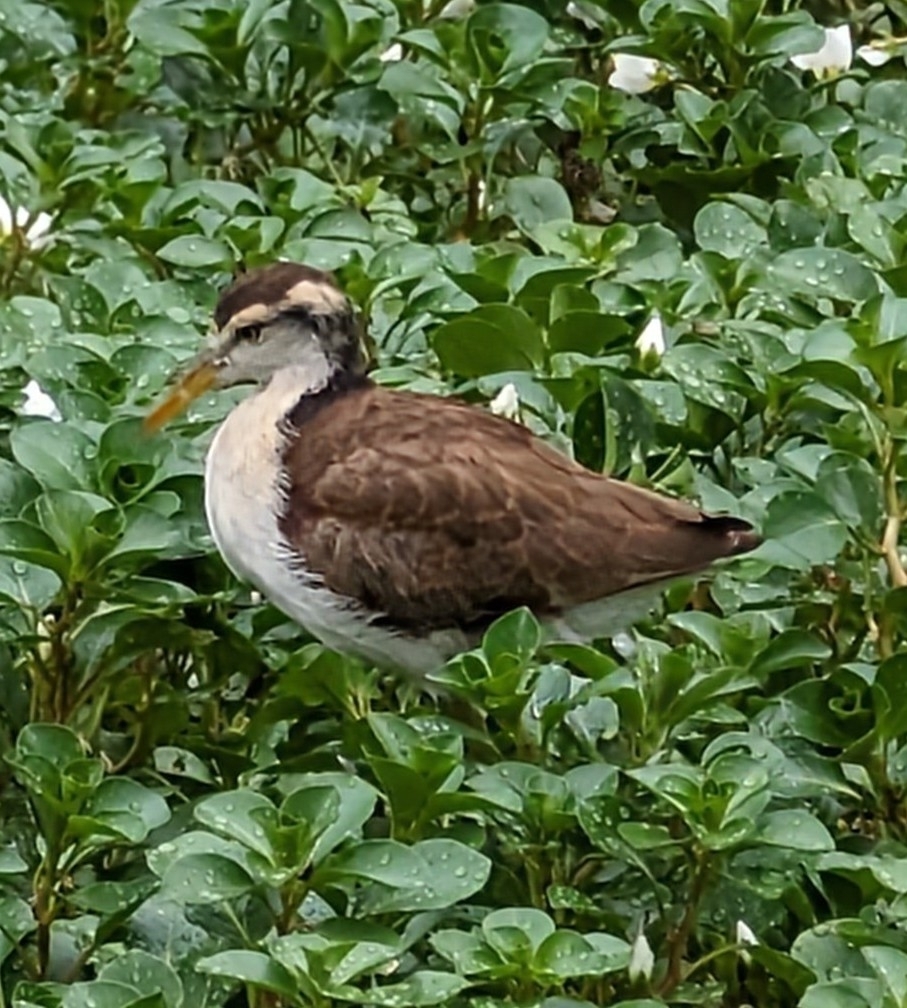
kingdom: Animalia
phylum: Chordata
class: Aves
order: Charadriiformes
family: Jacanidae
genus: Jacana
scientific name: Jacana spinosa
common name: Northern jacana
